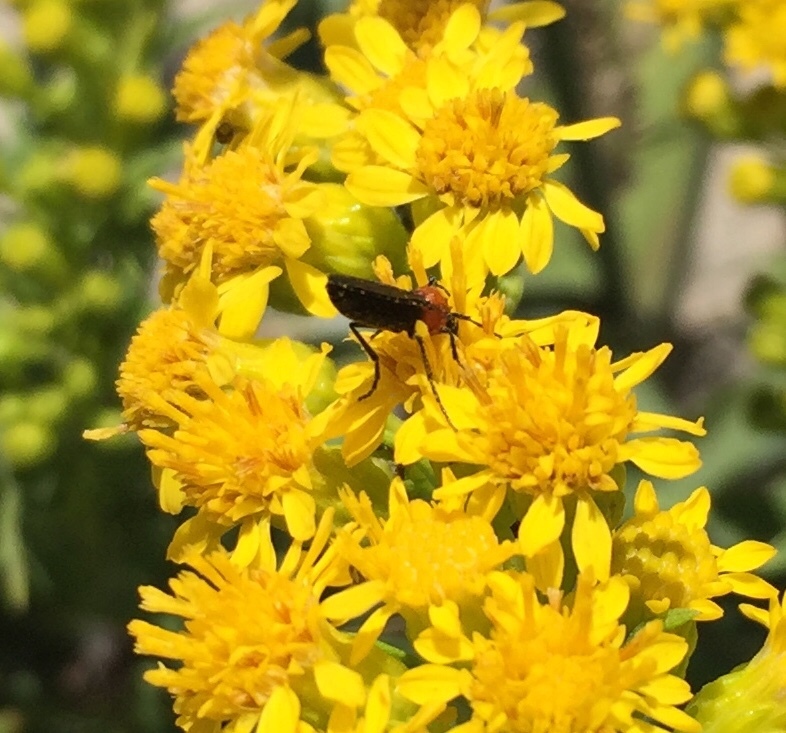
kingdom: Animalia
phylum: Arthropoda
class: Insecta
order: Diptera
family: Bibionidae
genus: Dilophus
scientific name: Dilophus spinipes
